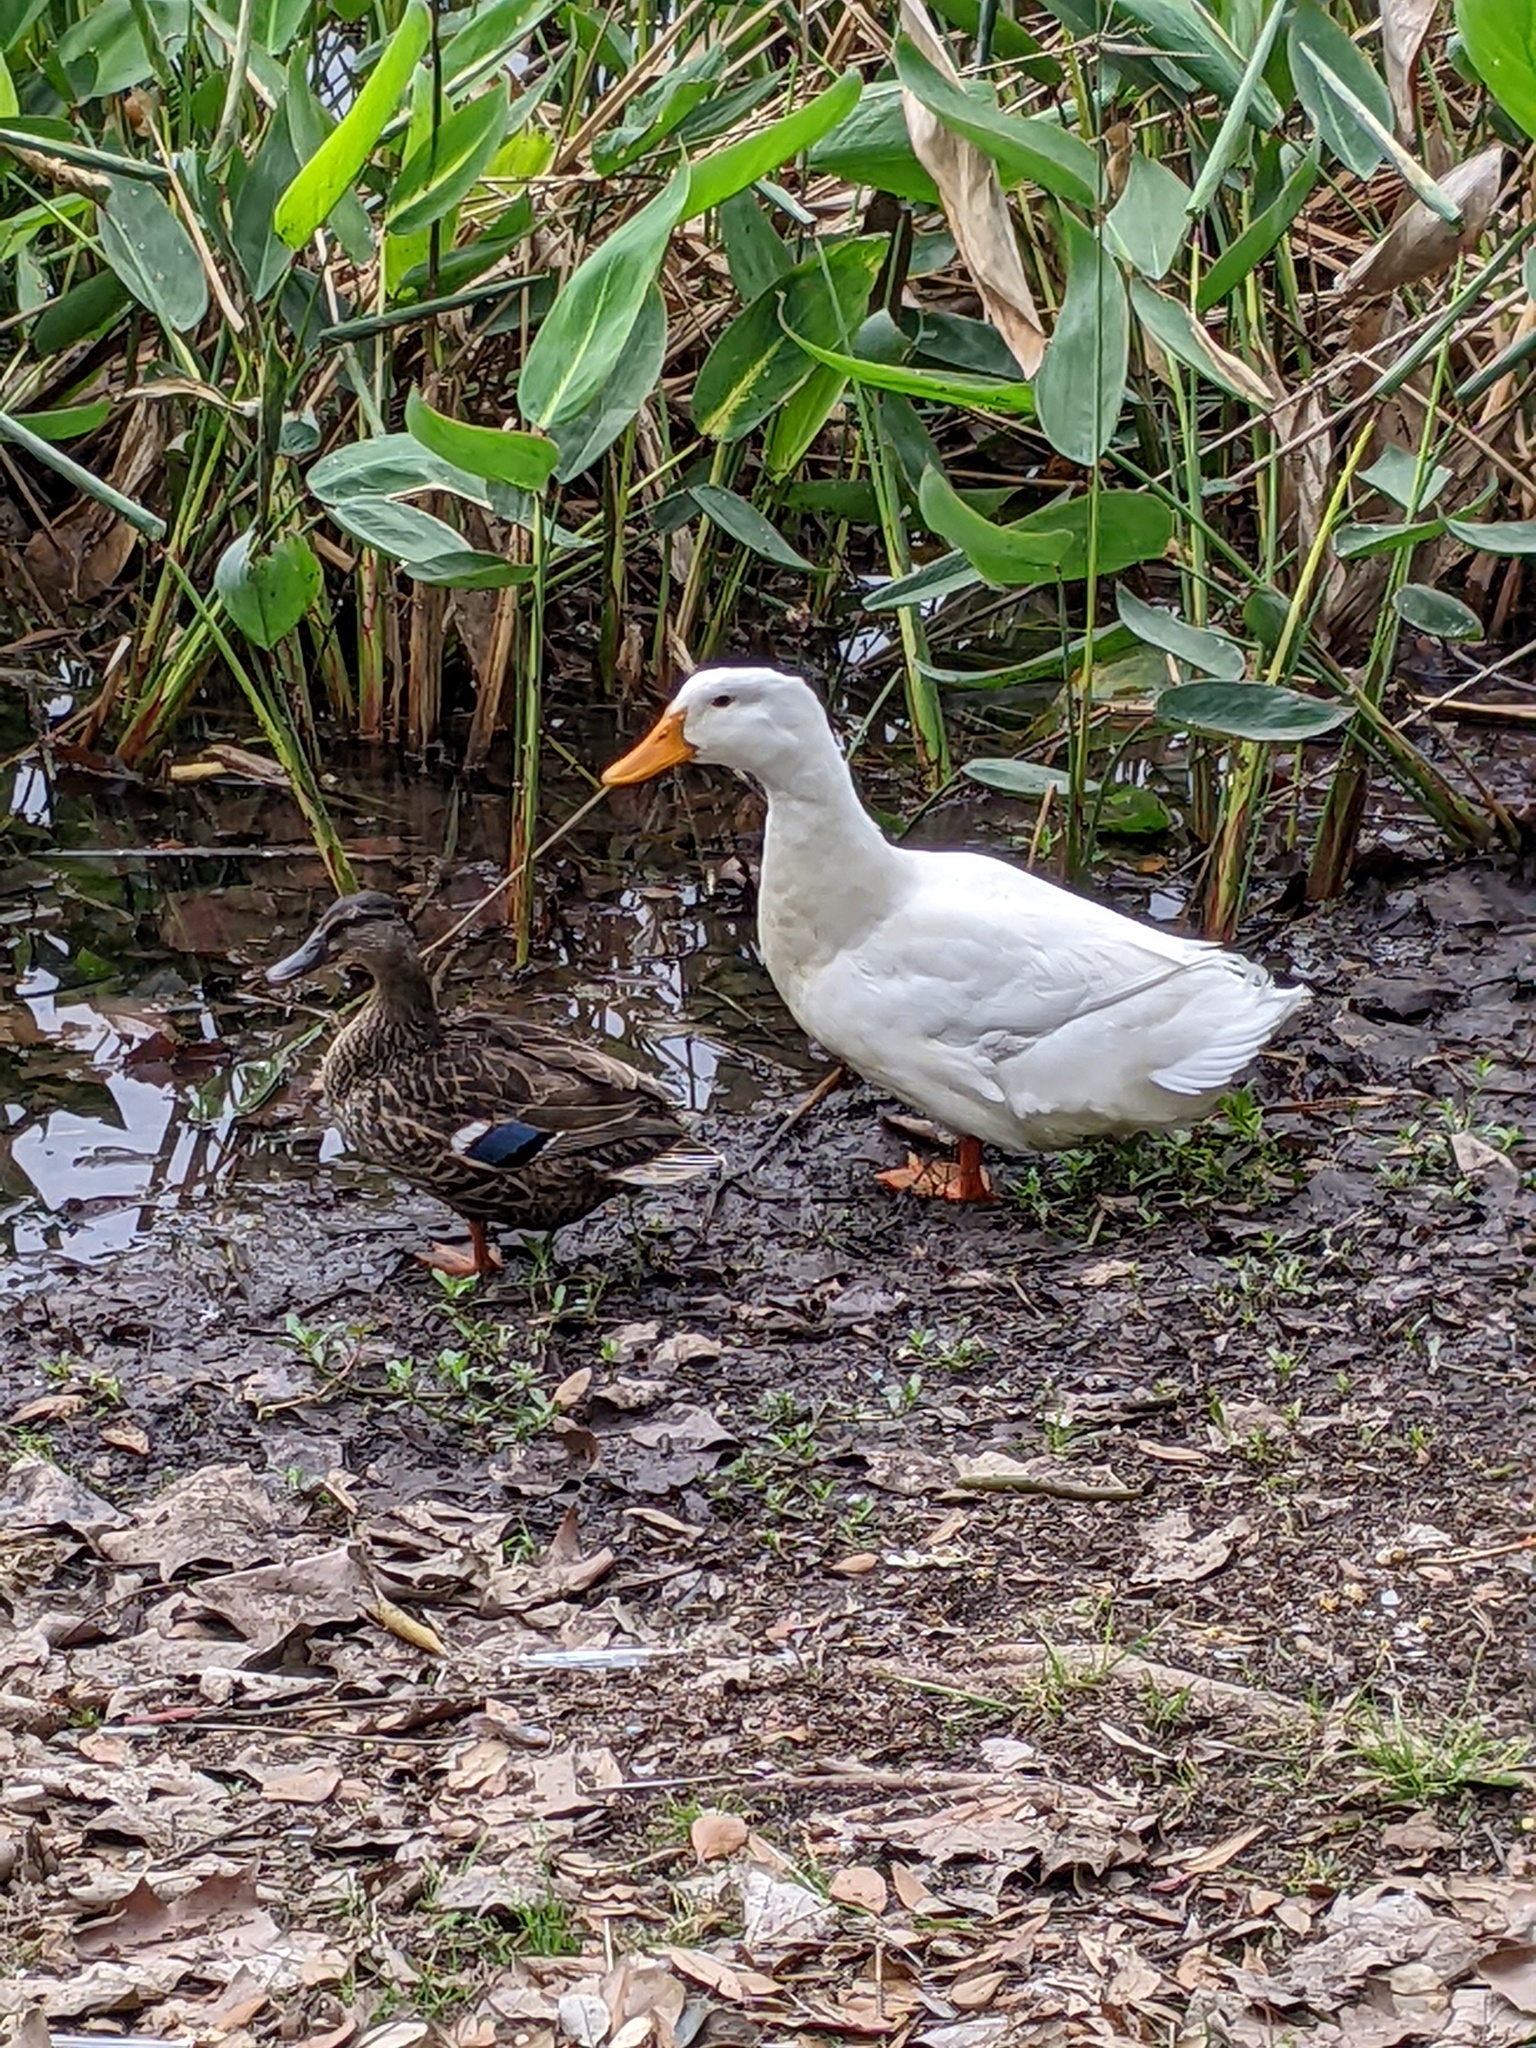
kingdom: Animalia
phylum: Chordata
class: Aves
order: Anseriformes
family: Anatidae
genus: Anas
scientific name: Anas platyrhynchos
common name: Mallard
